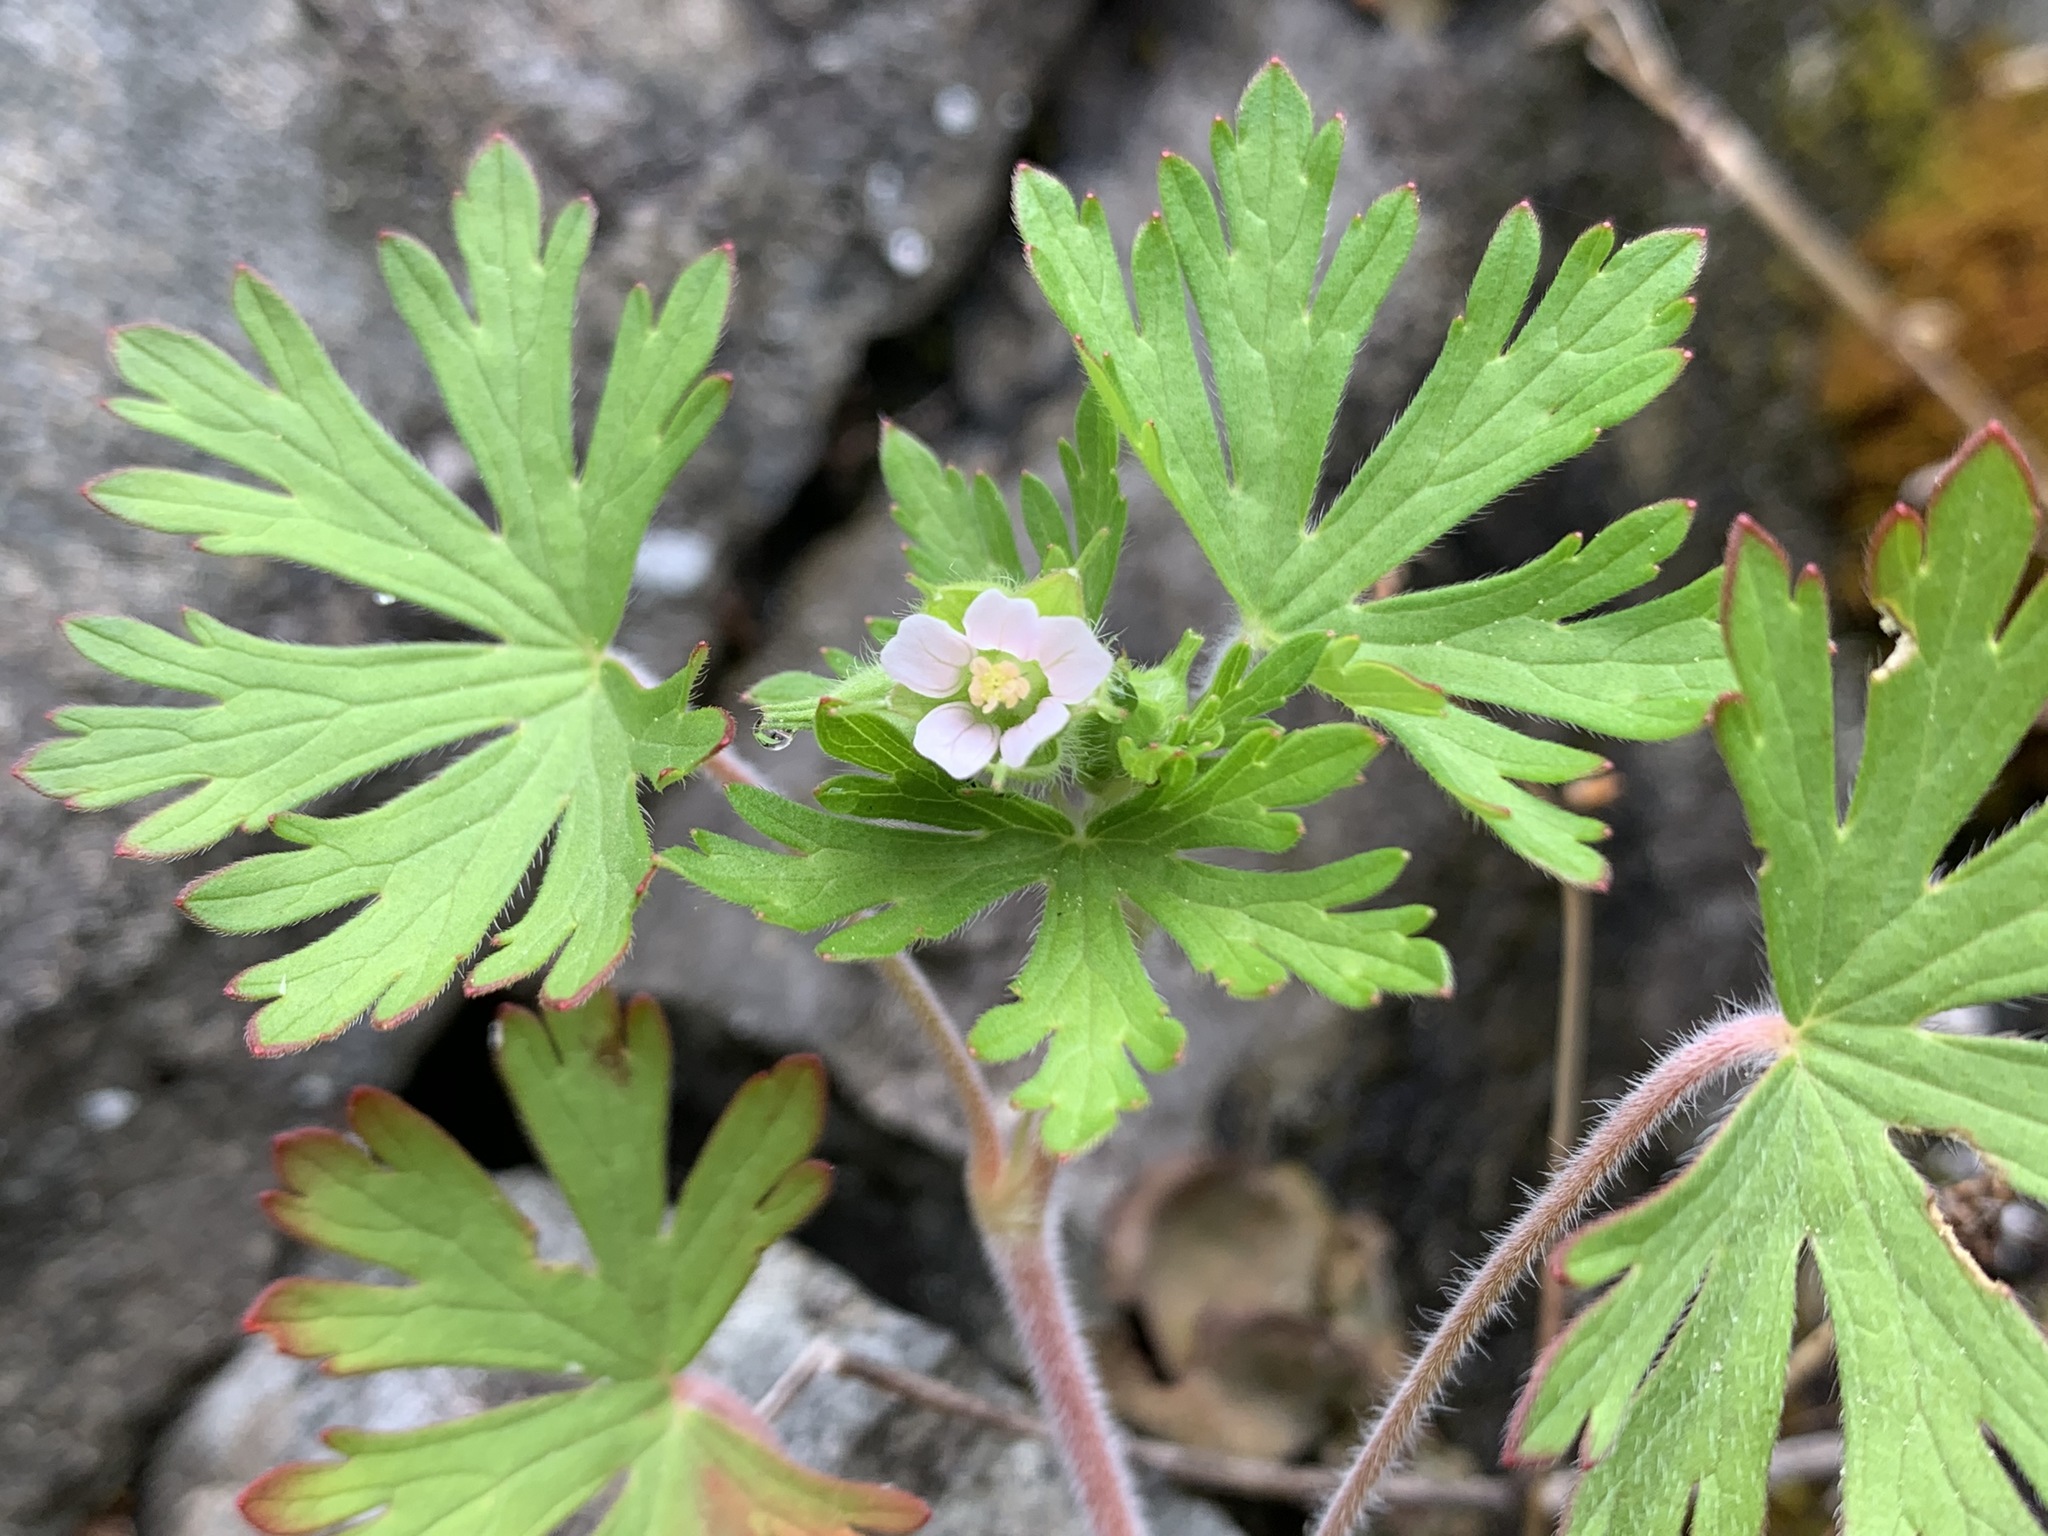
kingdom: Plantae
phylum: Tracheophyta
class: Magnoliopsida
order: Geraniales
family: Geraniaceae
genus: Geranium
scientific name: Geranium dissectum
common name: Cut-leaved crane's-bill
